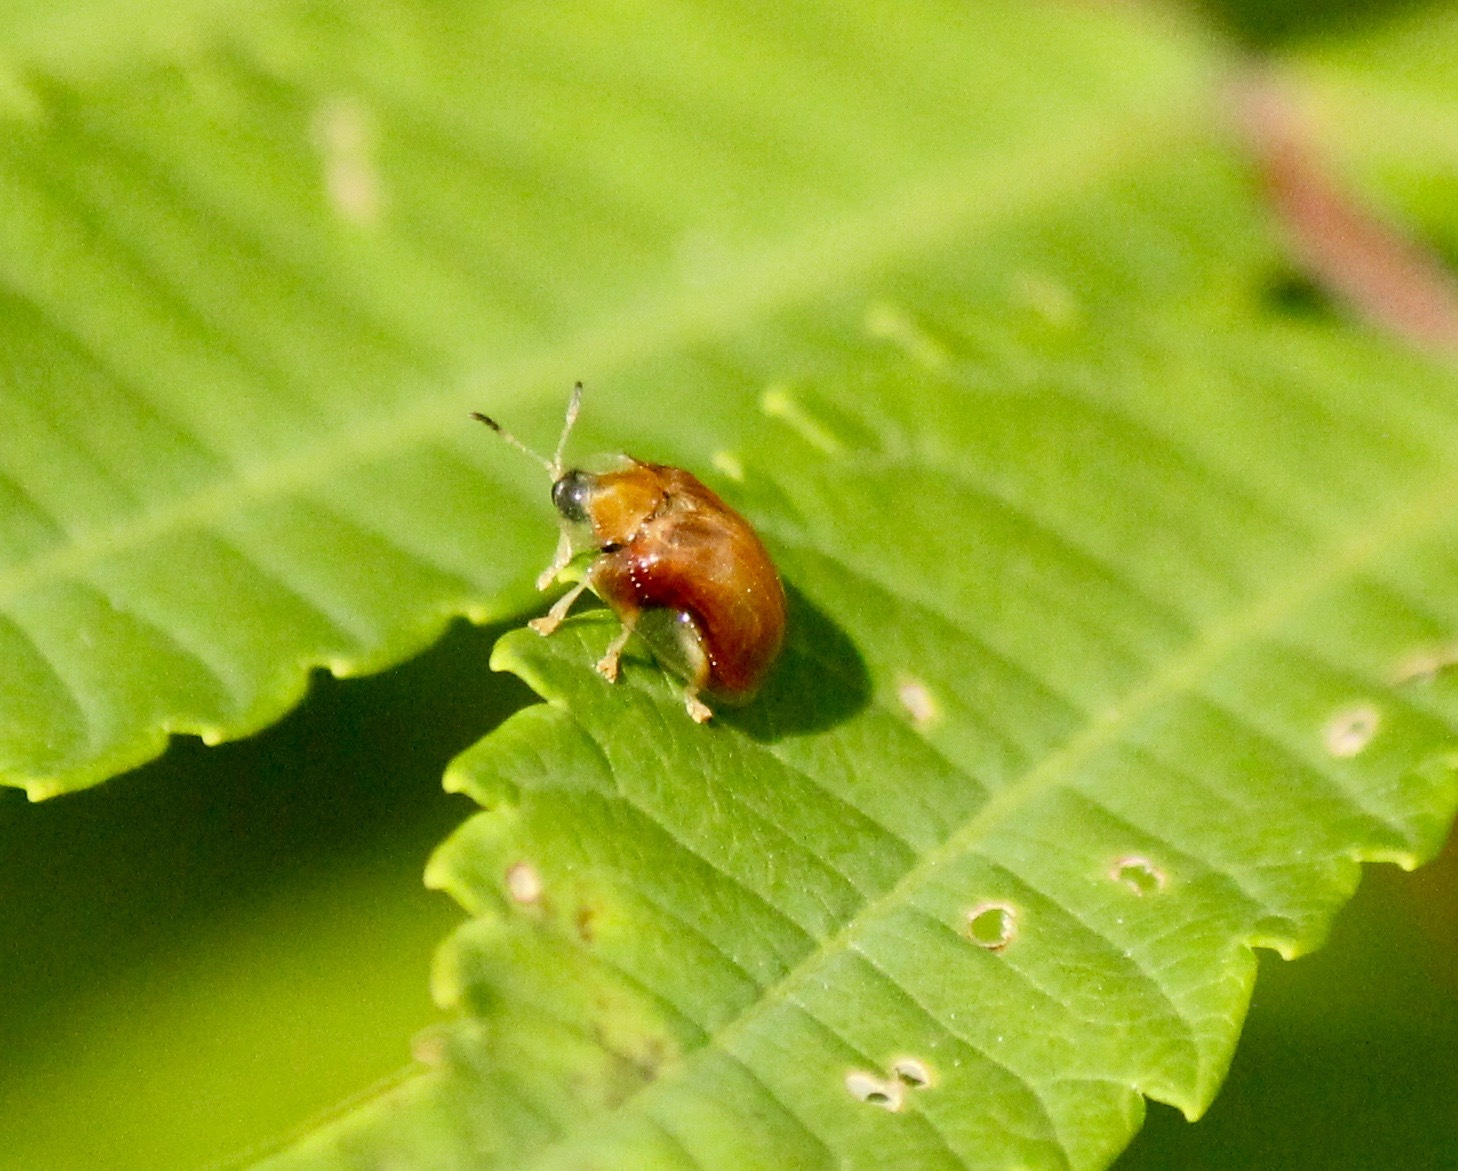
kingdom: Animalia
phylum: Arthropoda
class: Insecta
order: Coleoptera
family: Chrysomelidae
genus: Charidotella
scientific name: Charidotella purpurata
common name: Small orange tortoise beetle
